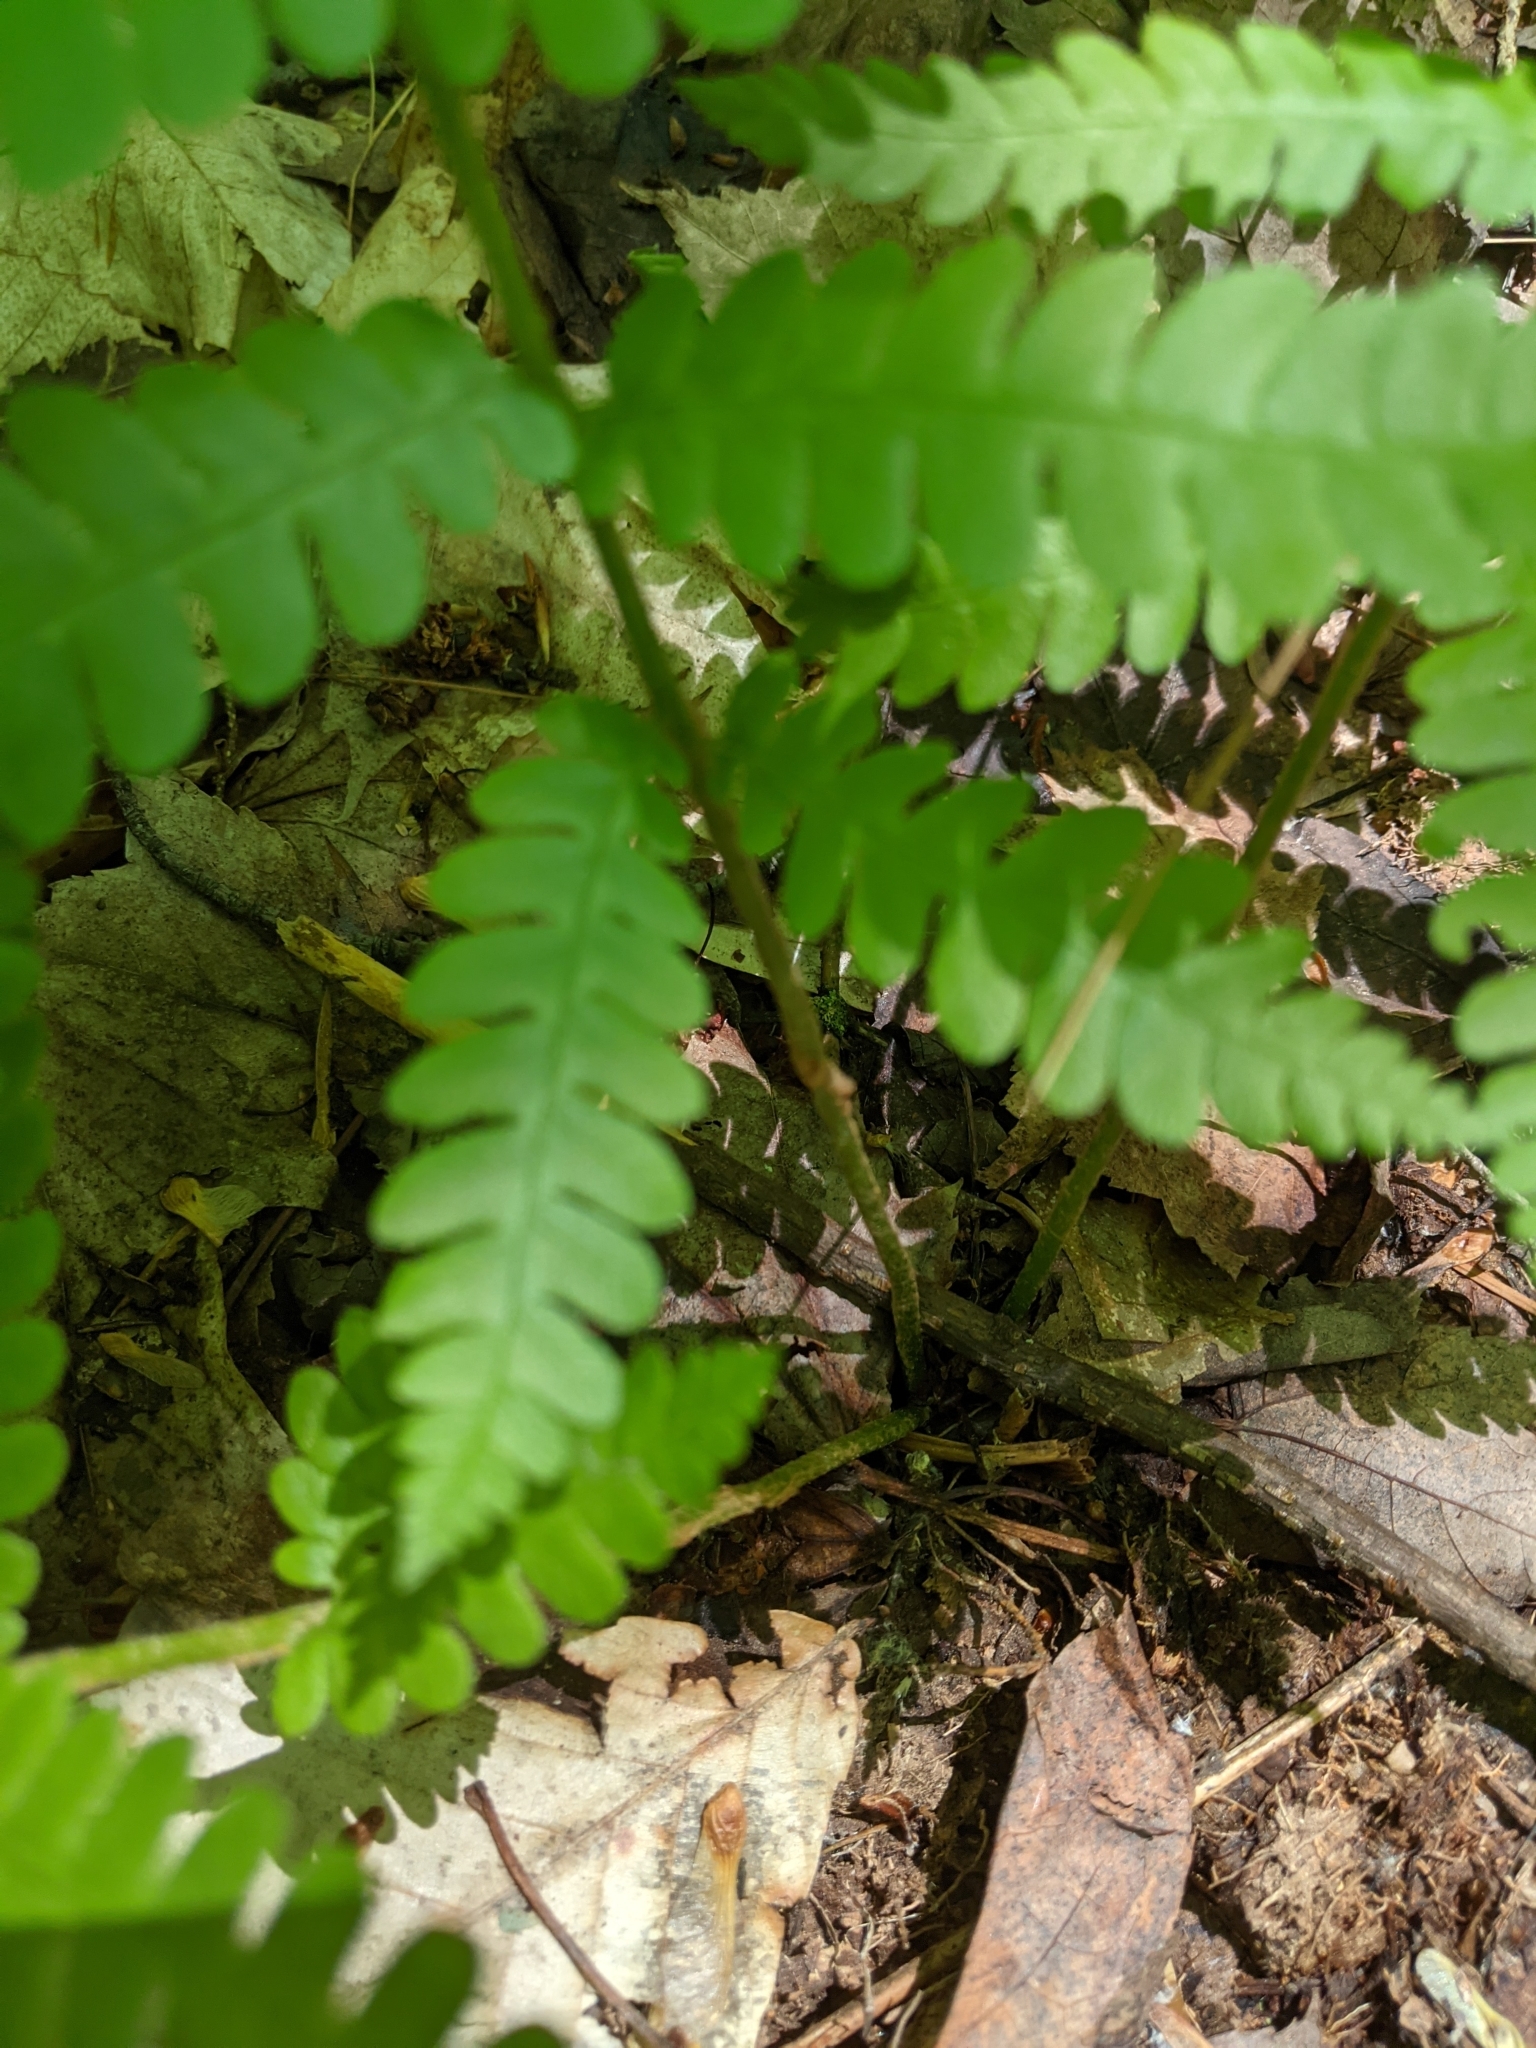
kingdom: Plantae
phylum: Tracheophyta
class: Polypodiopsida
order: Osmundales
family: Osmundaceae
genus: Osmundastrum
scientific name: Osmundastrum cinnamomeum
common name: Cinnamon fern
